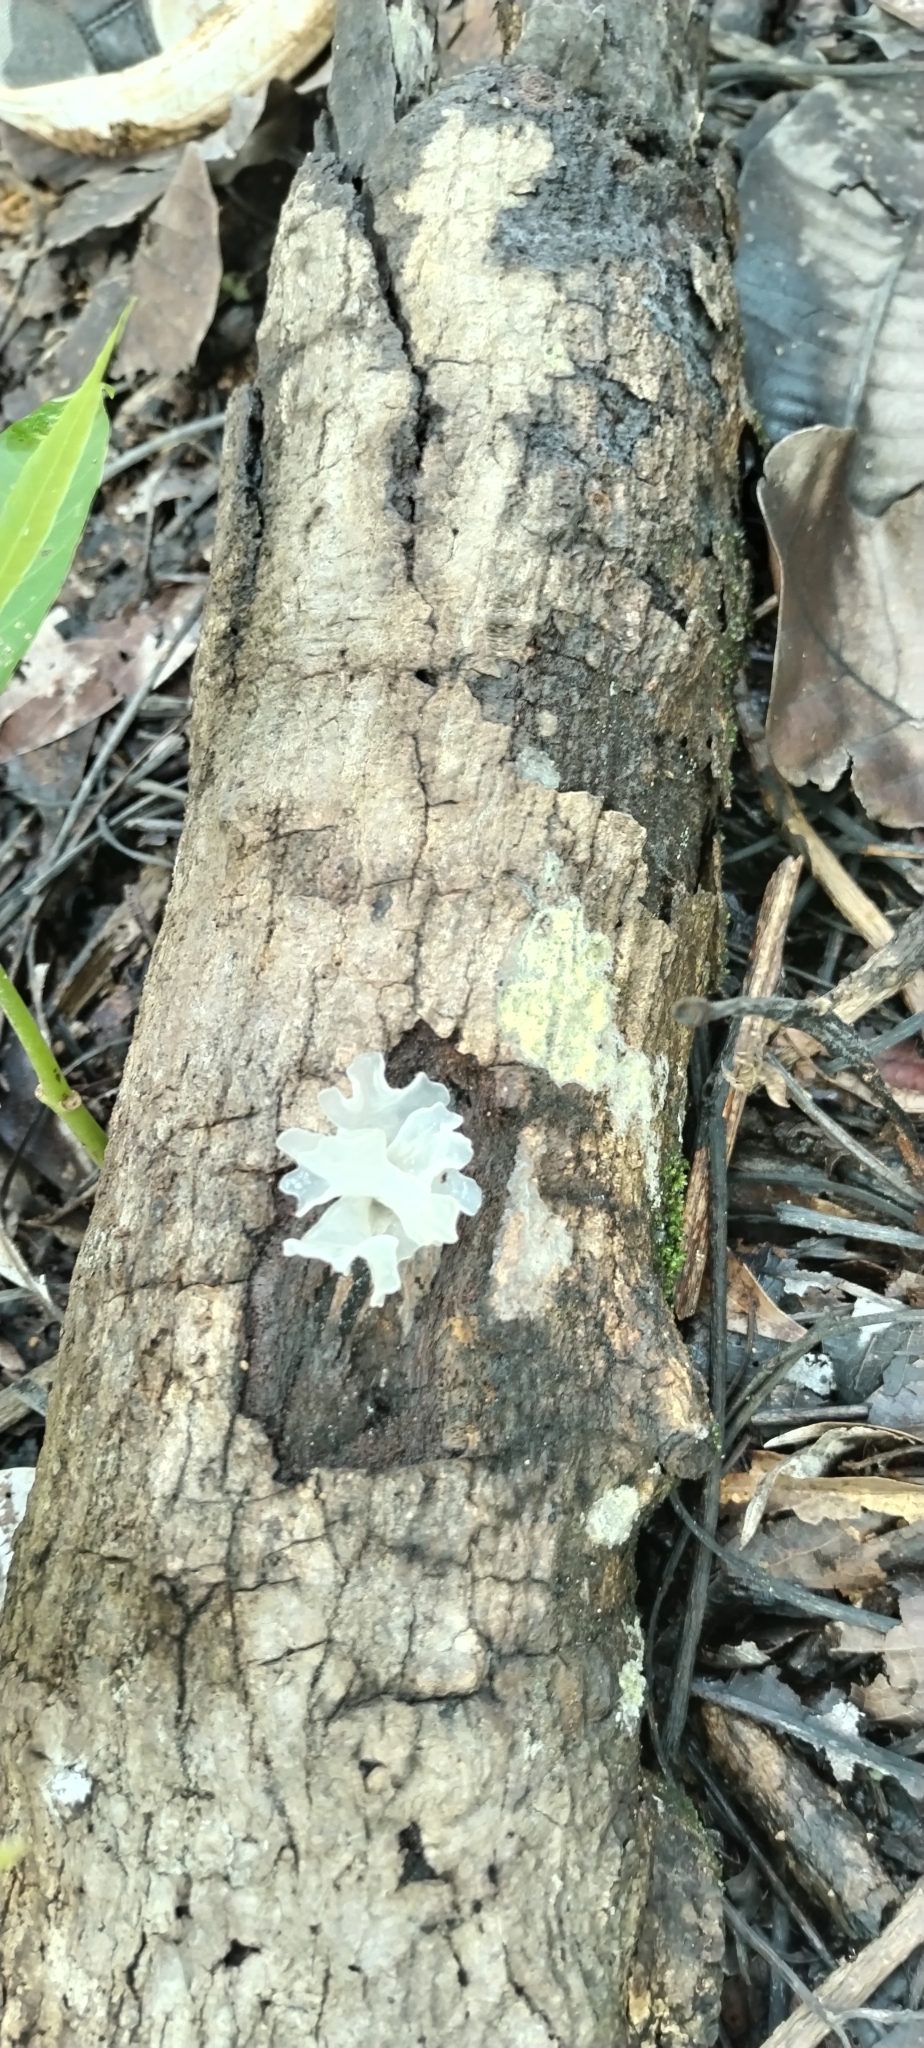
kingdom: Fungi
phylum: Basidiomycota
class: Tremellomycetes
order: Tremellales
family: Tremellaceae
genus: Tremella
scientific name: Tremella fuciformis
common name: Snow fungus
